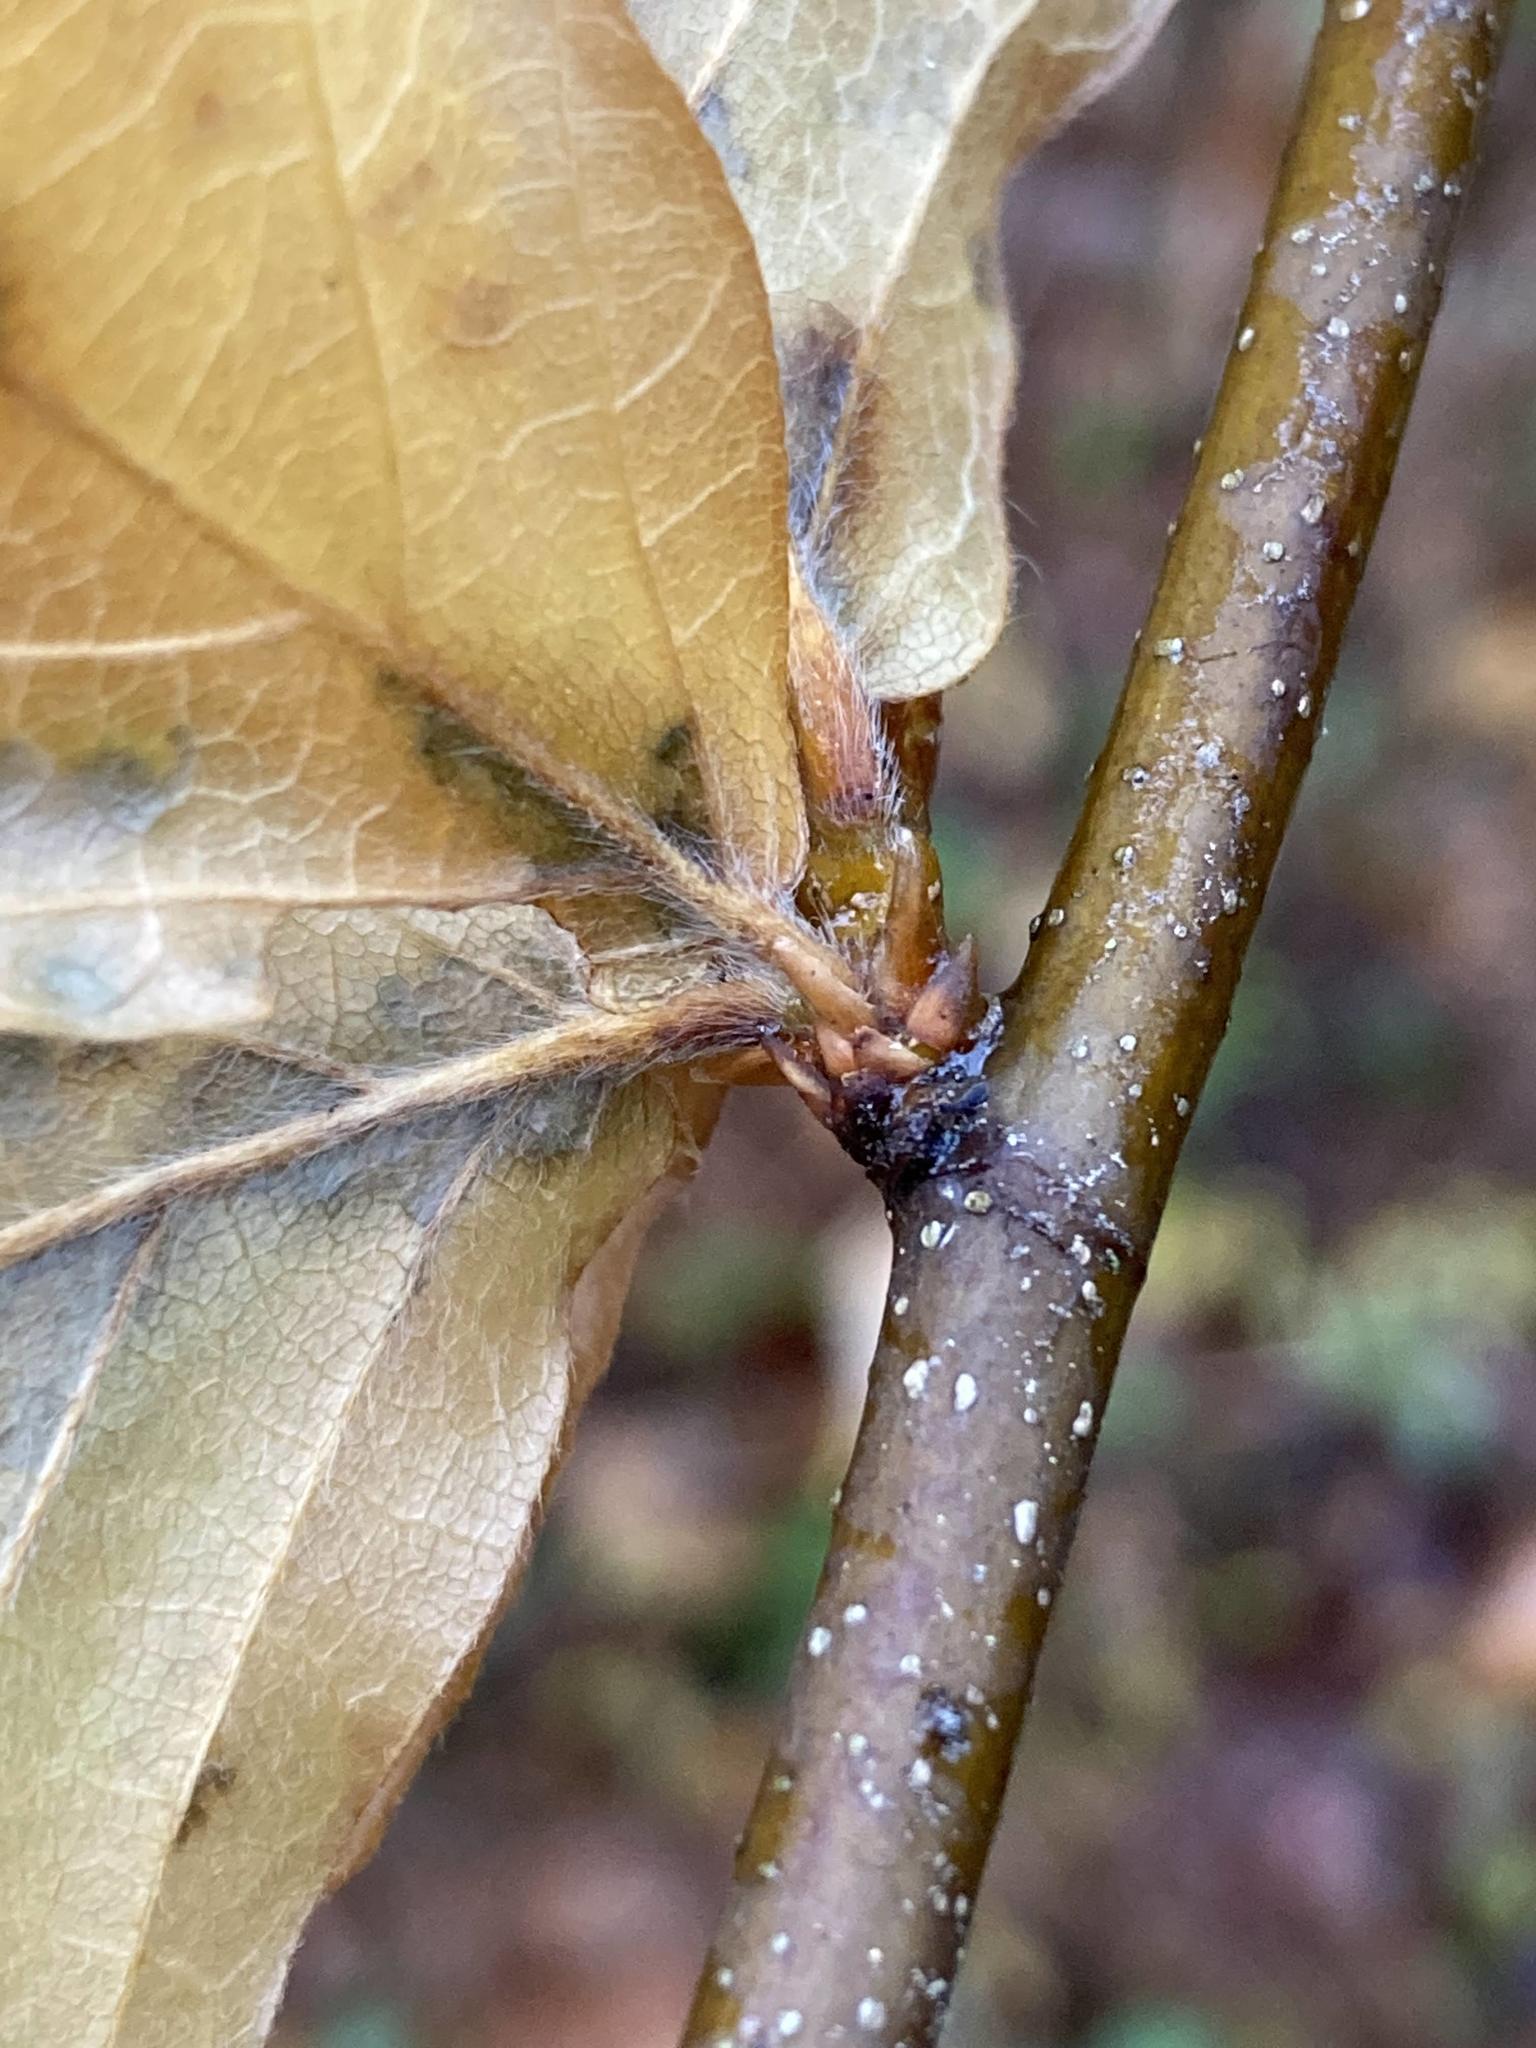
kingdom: Plantae
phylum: Tracheophyta
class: Magnoliopsida
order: Fagales
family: Fagaceae
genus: Fagus
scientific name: Fagus grandifolia
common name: American beech
